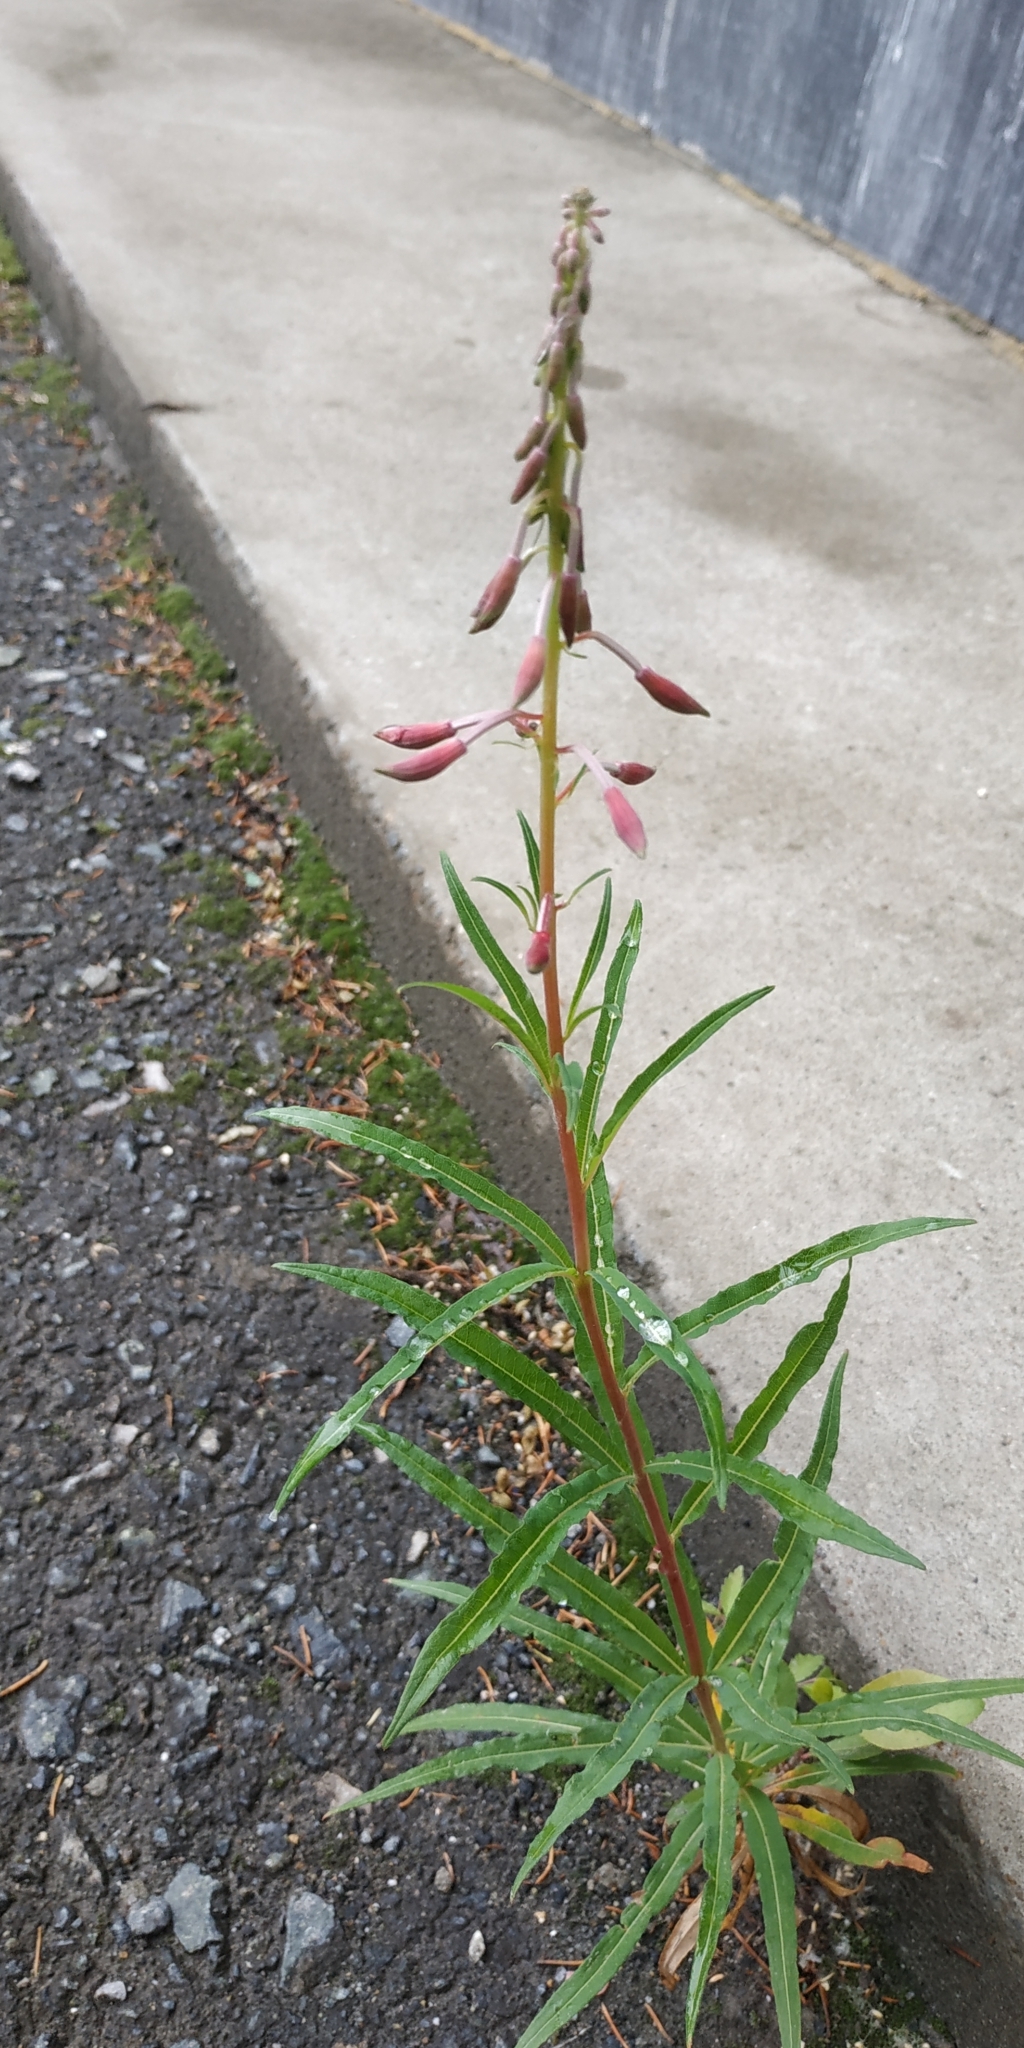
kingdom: Plantae
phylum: Tracheophyta
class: Magnoliopsida
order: Myrtales
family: Onagraceae
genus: Chamaenerion
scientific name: Chamaenerion angustifolium
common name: Fireweed
